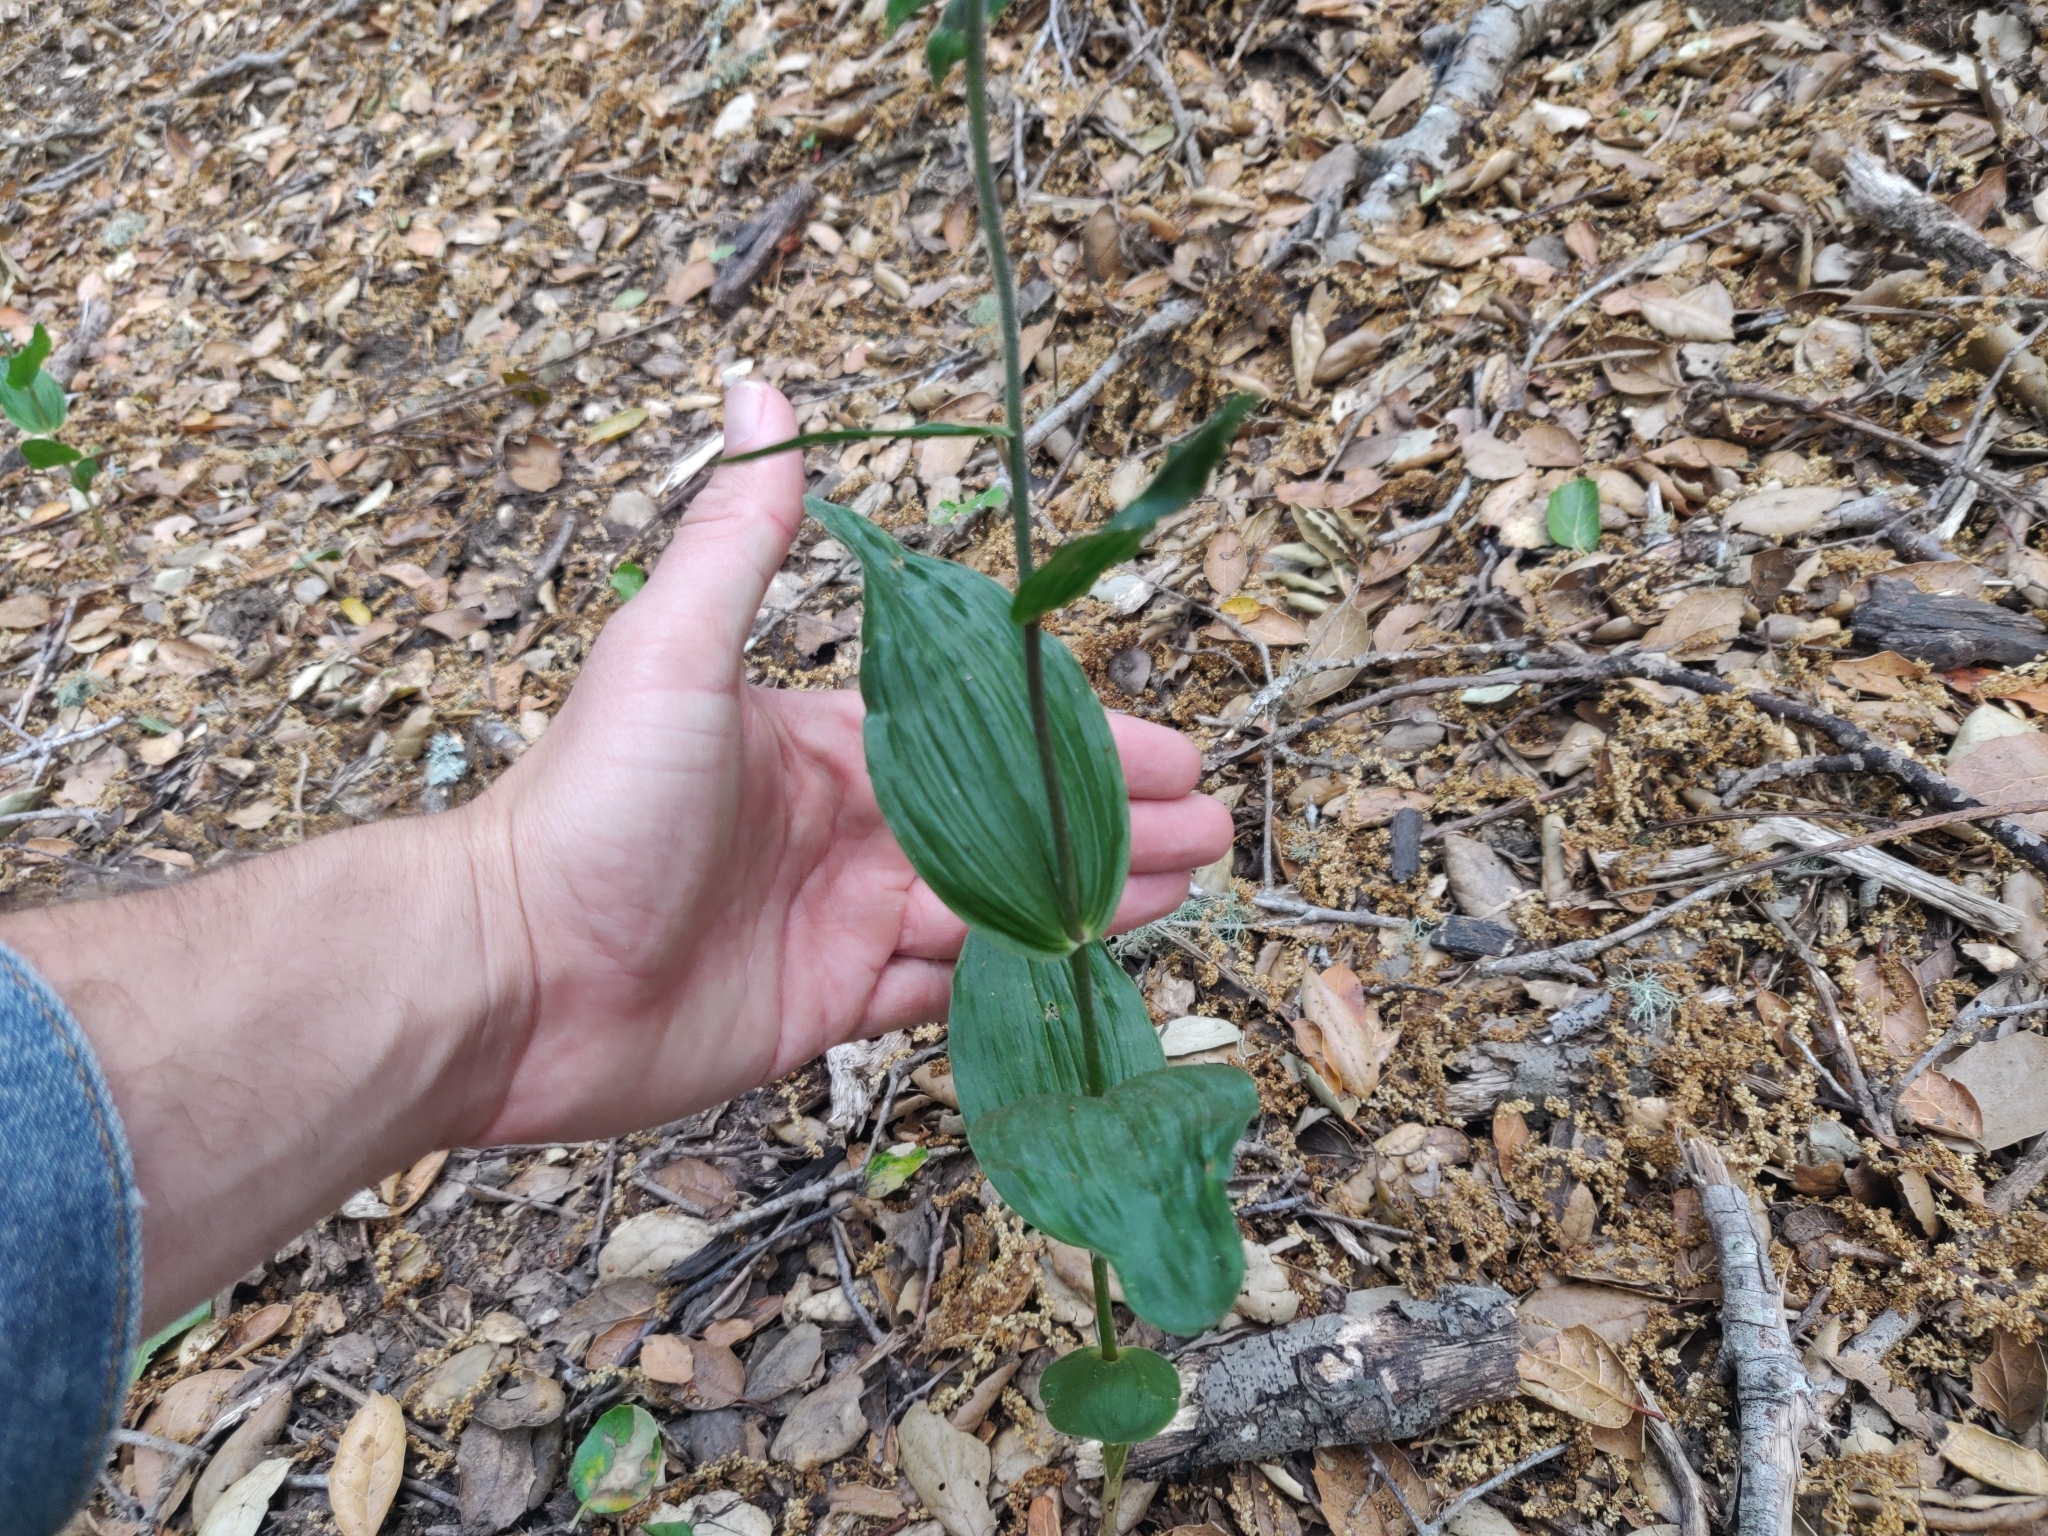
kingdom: Plantae
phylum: Tracheophyta
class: Liliopsida
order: Asparagales
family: Orchidaceae
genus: Epipactis
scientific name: Epipactis helleborine
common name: Broad-leaved helleborine
